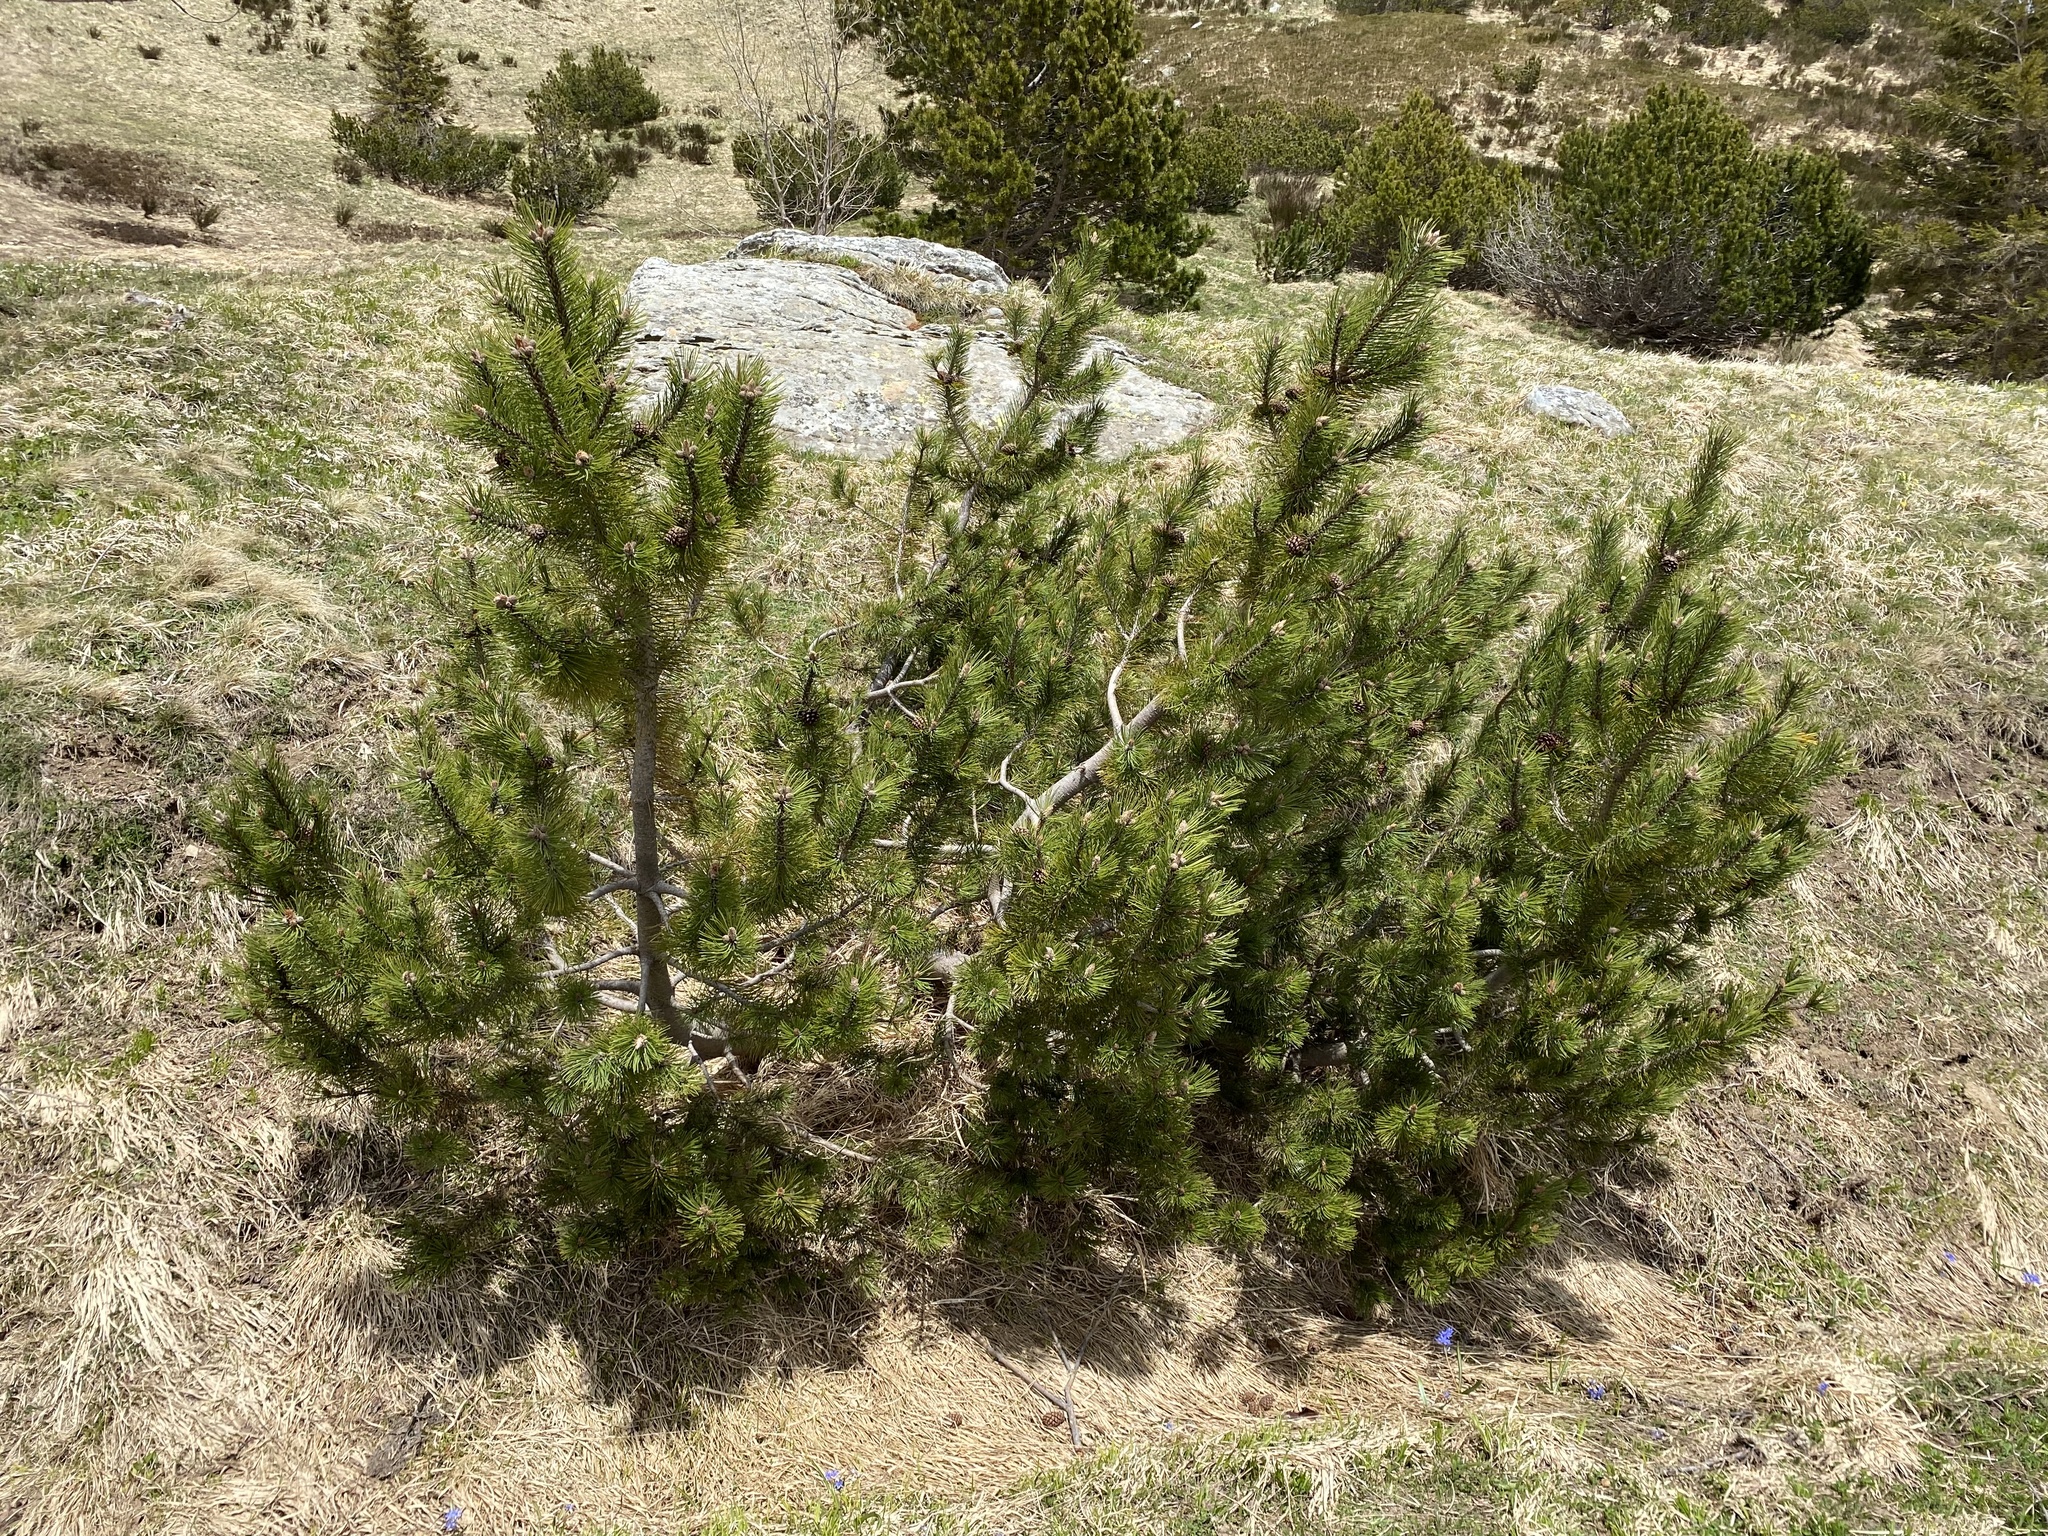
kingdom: Plantae
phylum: Tracheophyta
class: Pinopsida
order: Pinales
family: Pinaceae
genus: Pinus
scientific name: Pinus mugo
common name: Mugo pine
